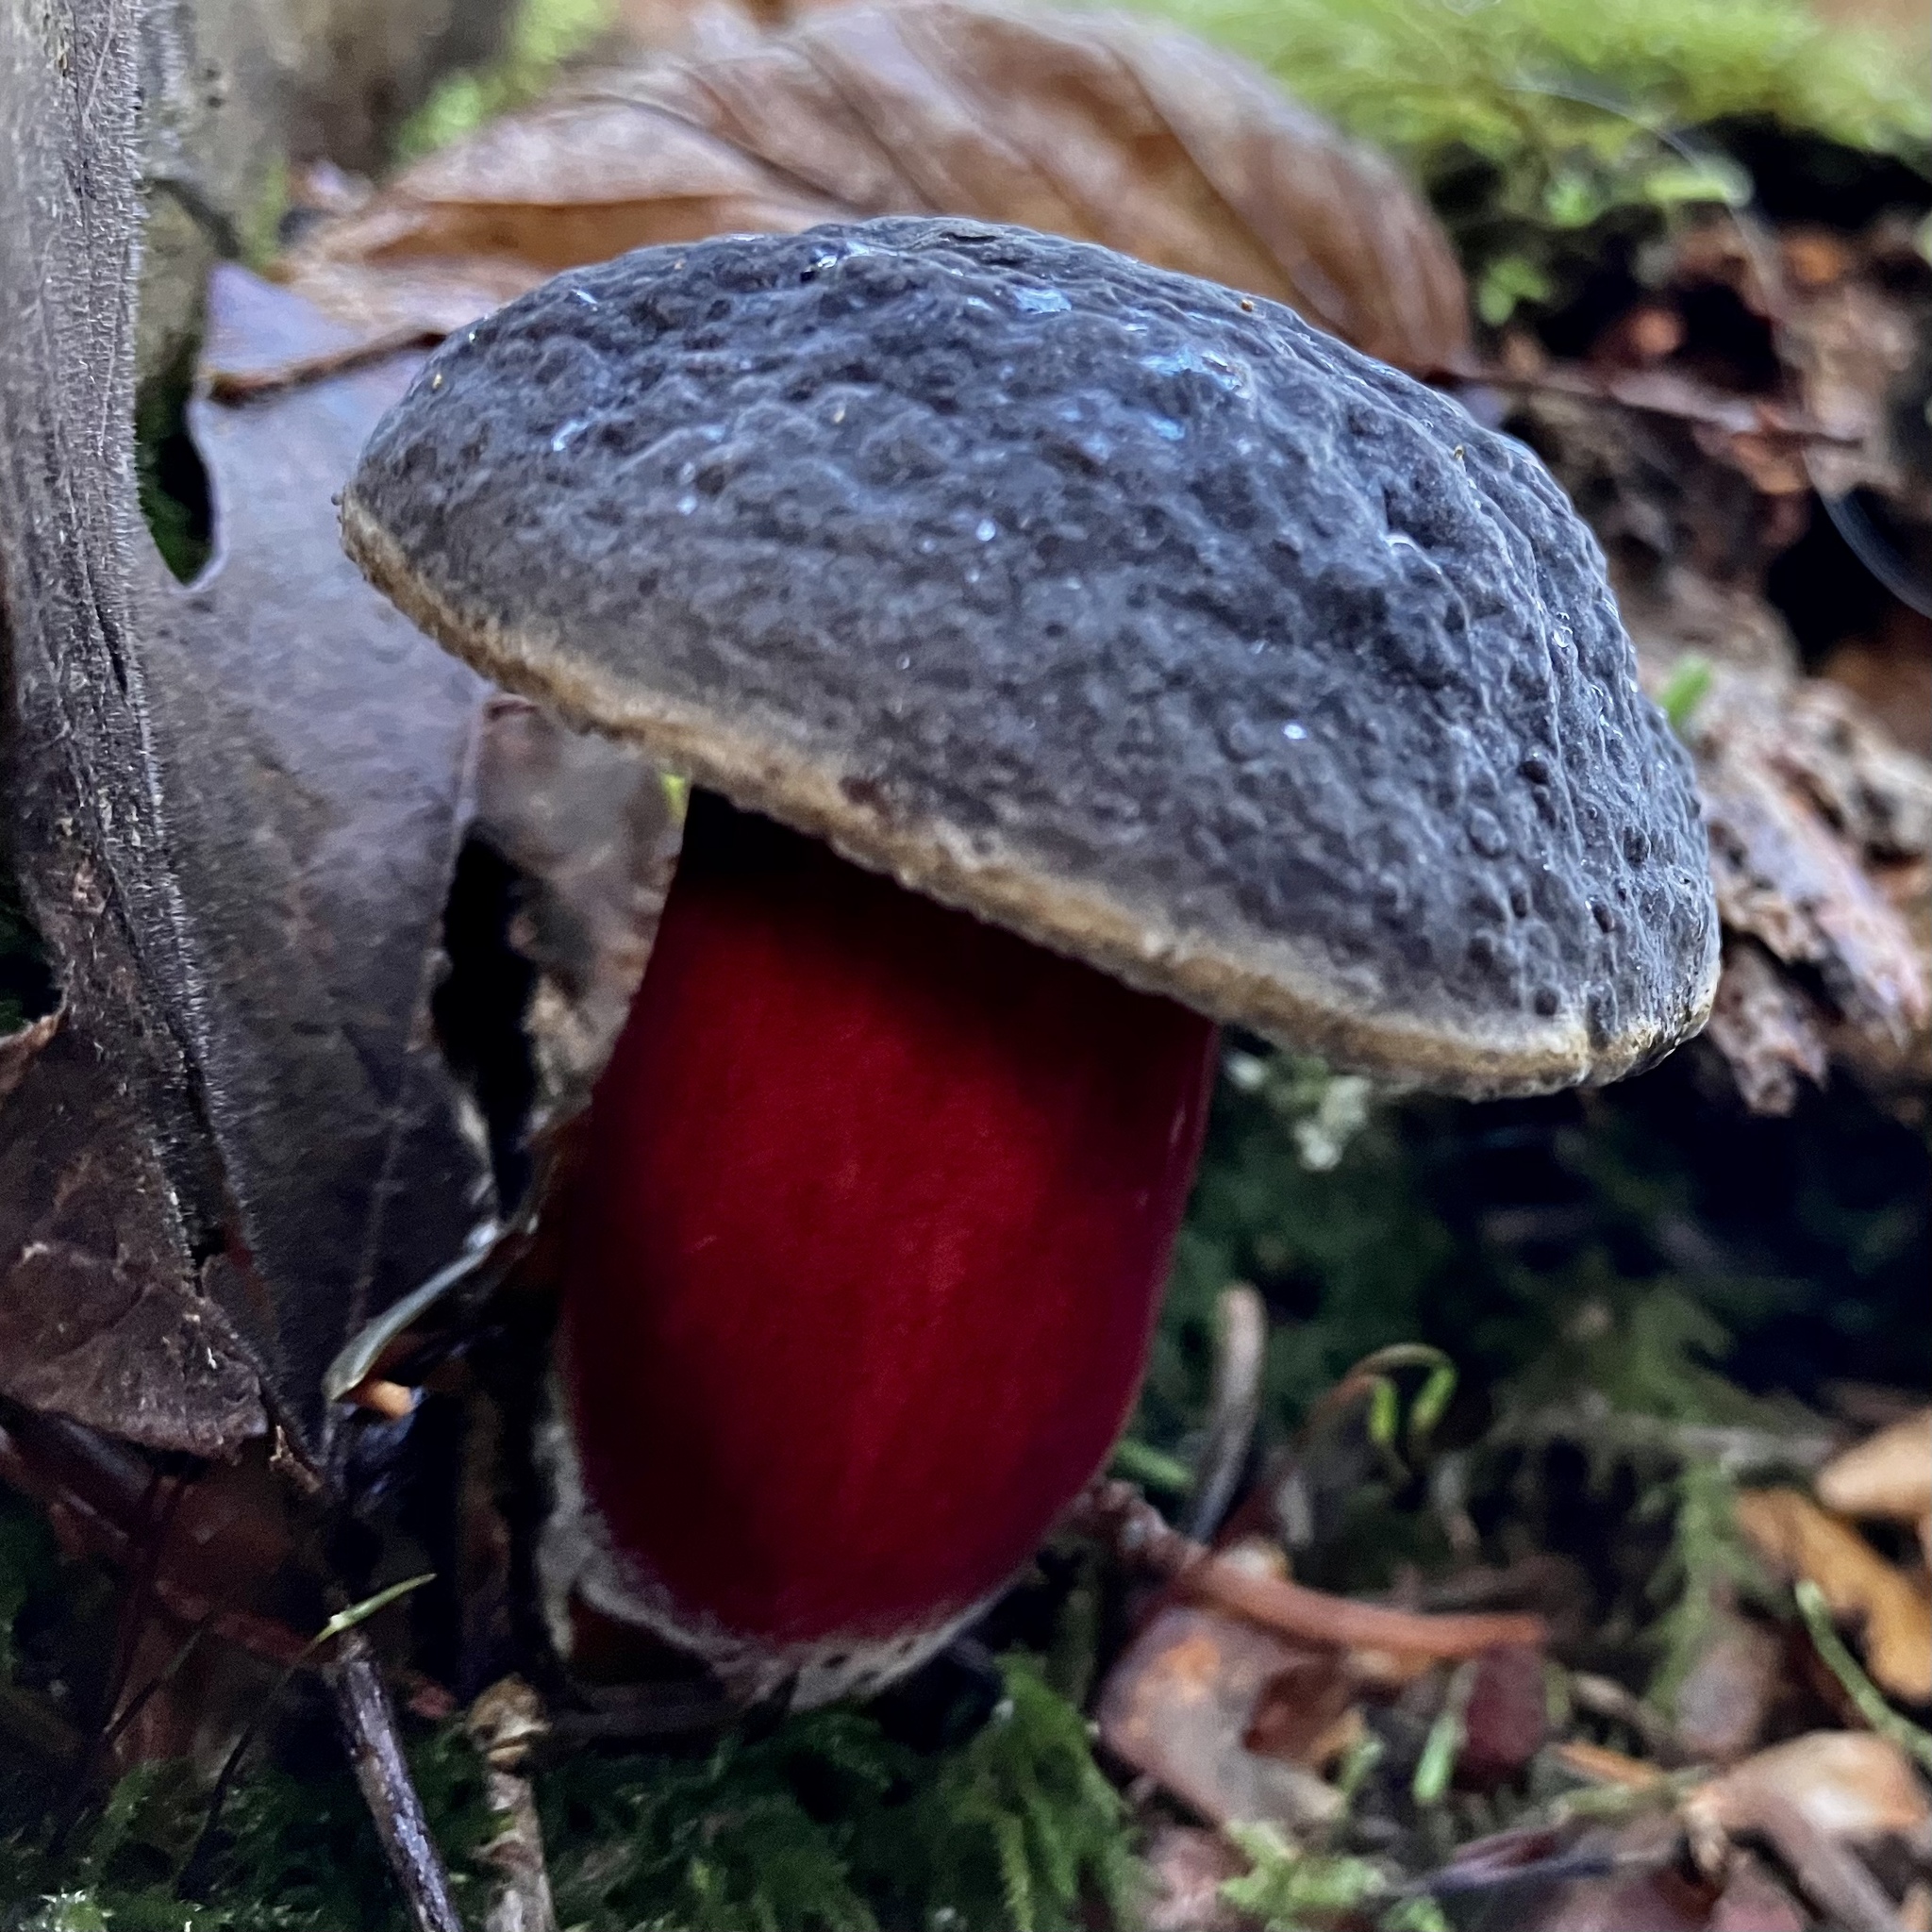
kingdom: Fungi
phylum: Basidiomycota
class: Agaricomycetes
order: Boletales
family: Boletaceae
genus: Xerocomellus
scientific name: Xerocomellus atropurpureus
